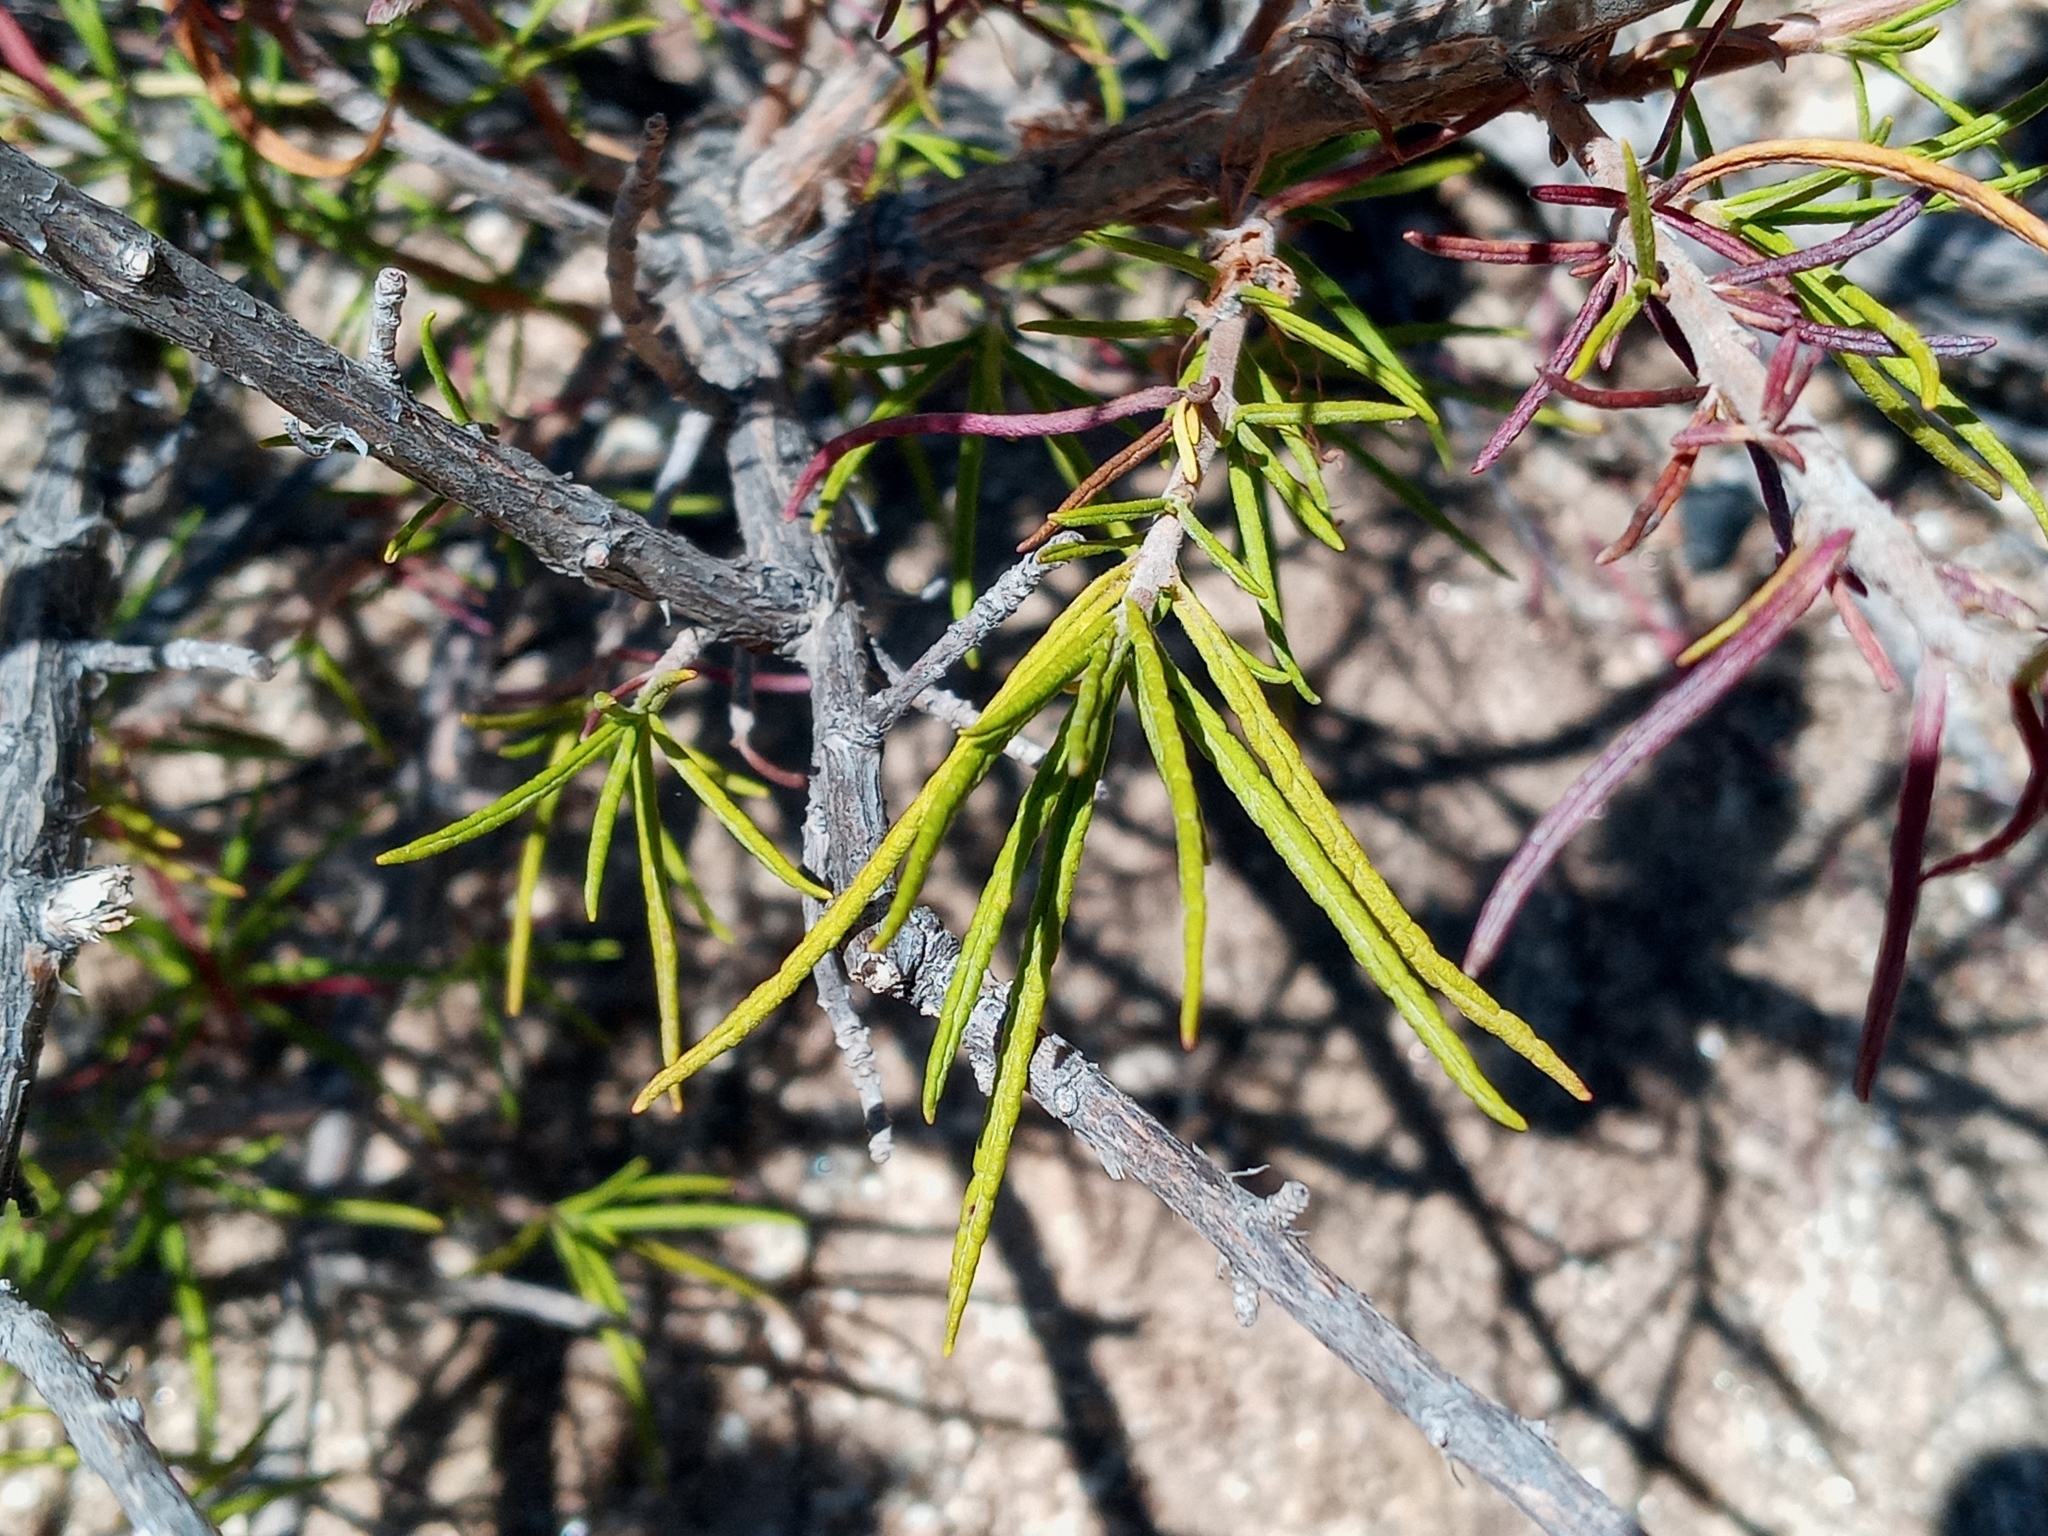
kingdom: Plantae
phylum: Tracheophyta
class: Magnoliopsida
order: Lamiales
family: Lamiaceae
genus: Trichostema
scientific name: Trichostema lanatum
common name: Woolly bluecurls
